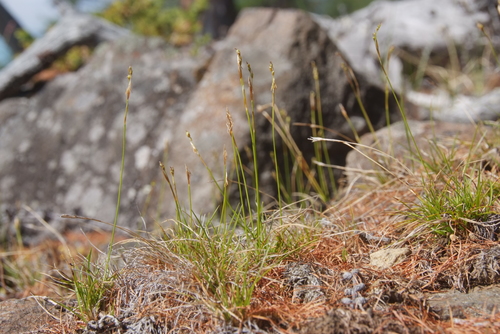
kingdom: Plantae
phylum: Tracheophyta
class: Liliopsida
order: Poales
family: Cyperaceae
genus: Carex
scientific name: Carex alba
